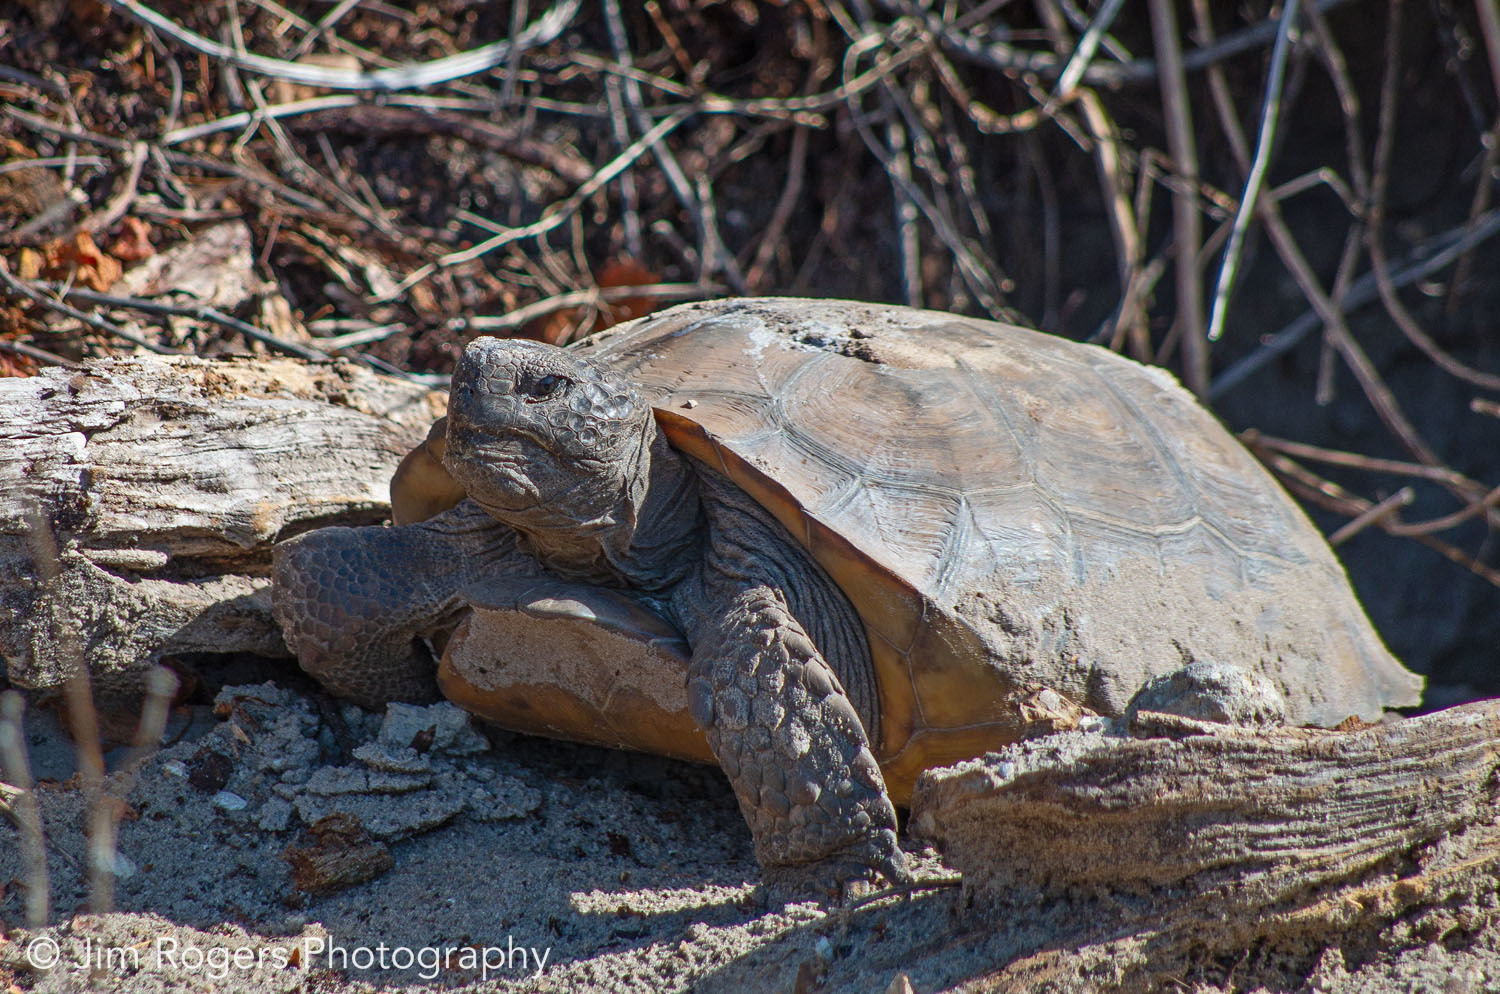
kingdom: Animalia
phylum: Chordata
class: Testudines
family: Testudinidae
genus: Gopherus
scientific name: Gopherus polyphemus
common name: Florida gopher tortoise
